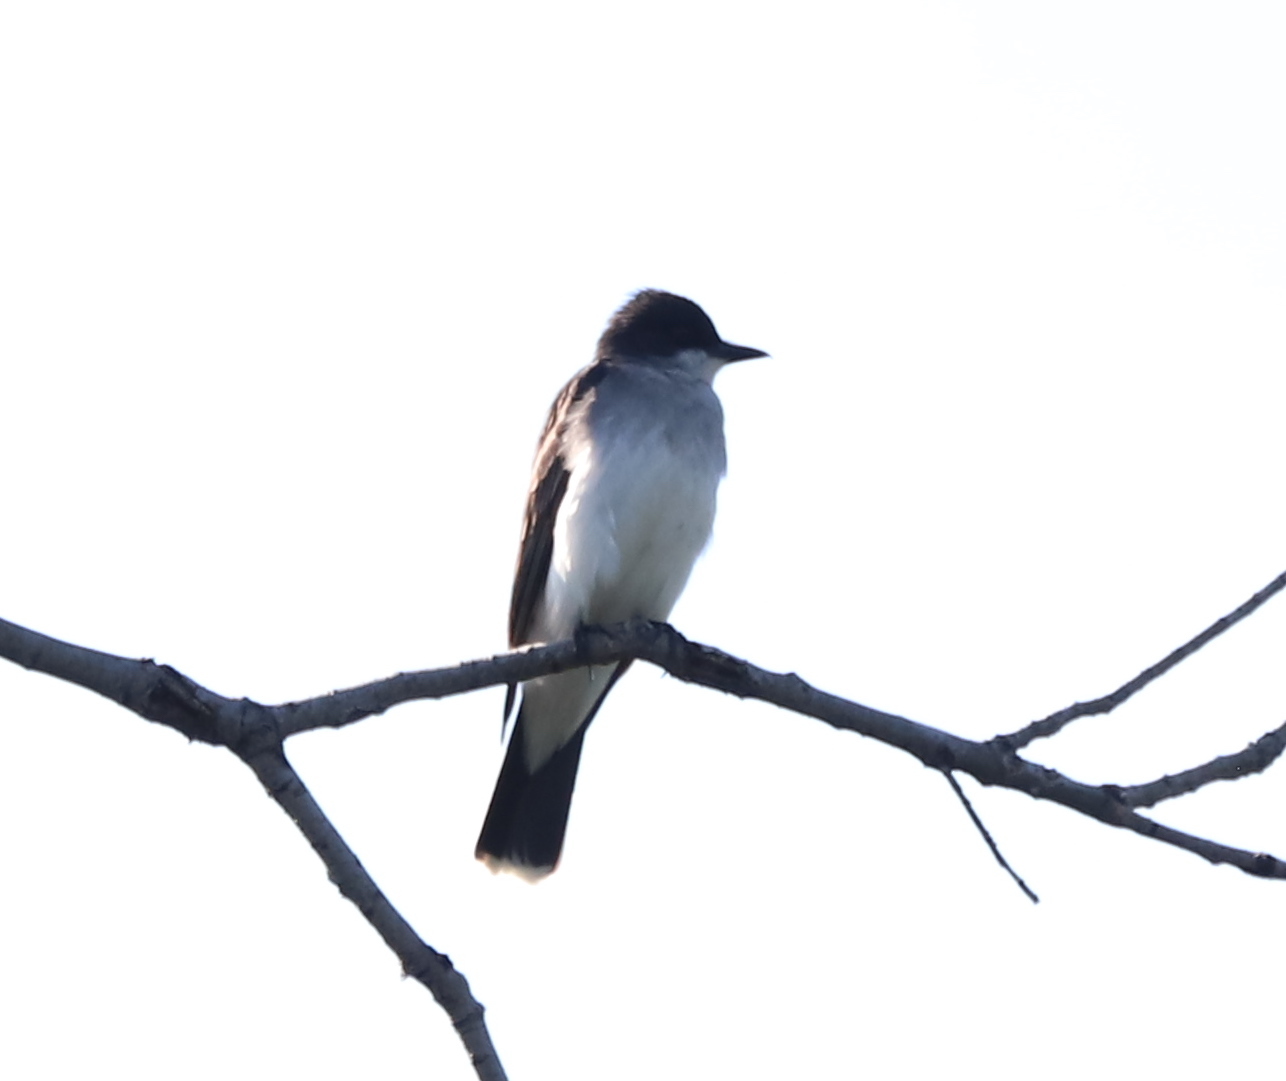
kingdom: Animalia
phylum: Chordata
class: Aves
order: Passeriformes
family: Tyrannidae
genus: Tyrannus
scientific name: Tyrannus tyrannus
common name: Eastern kingbird
